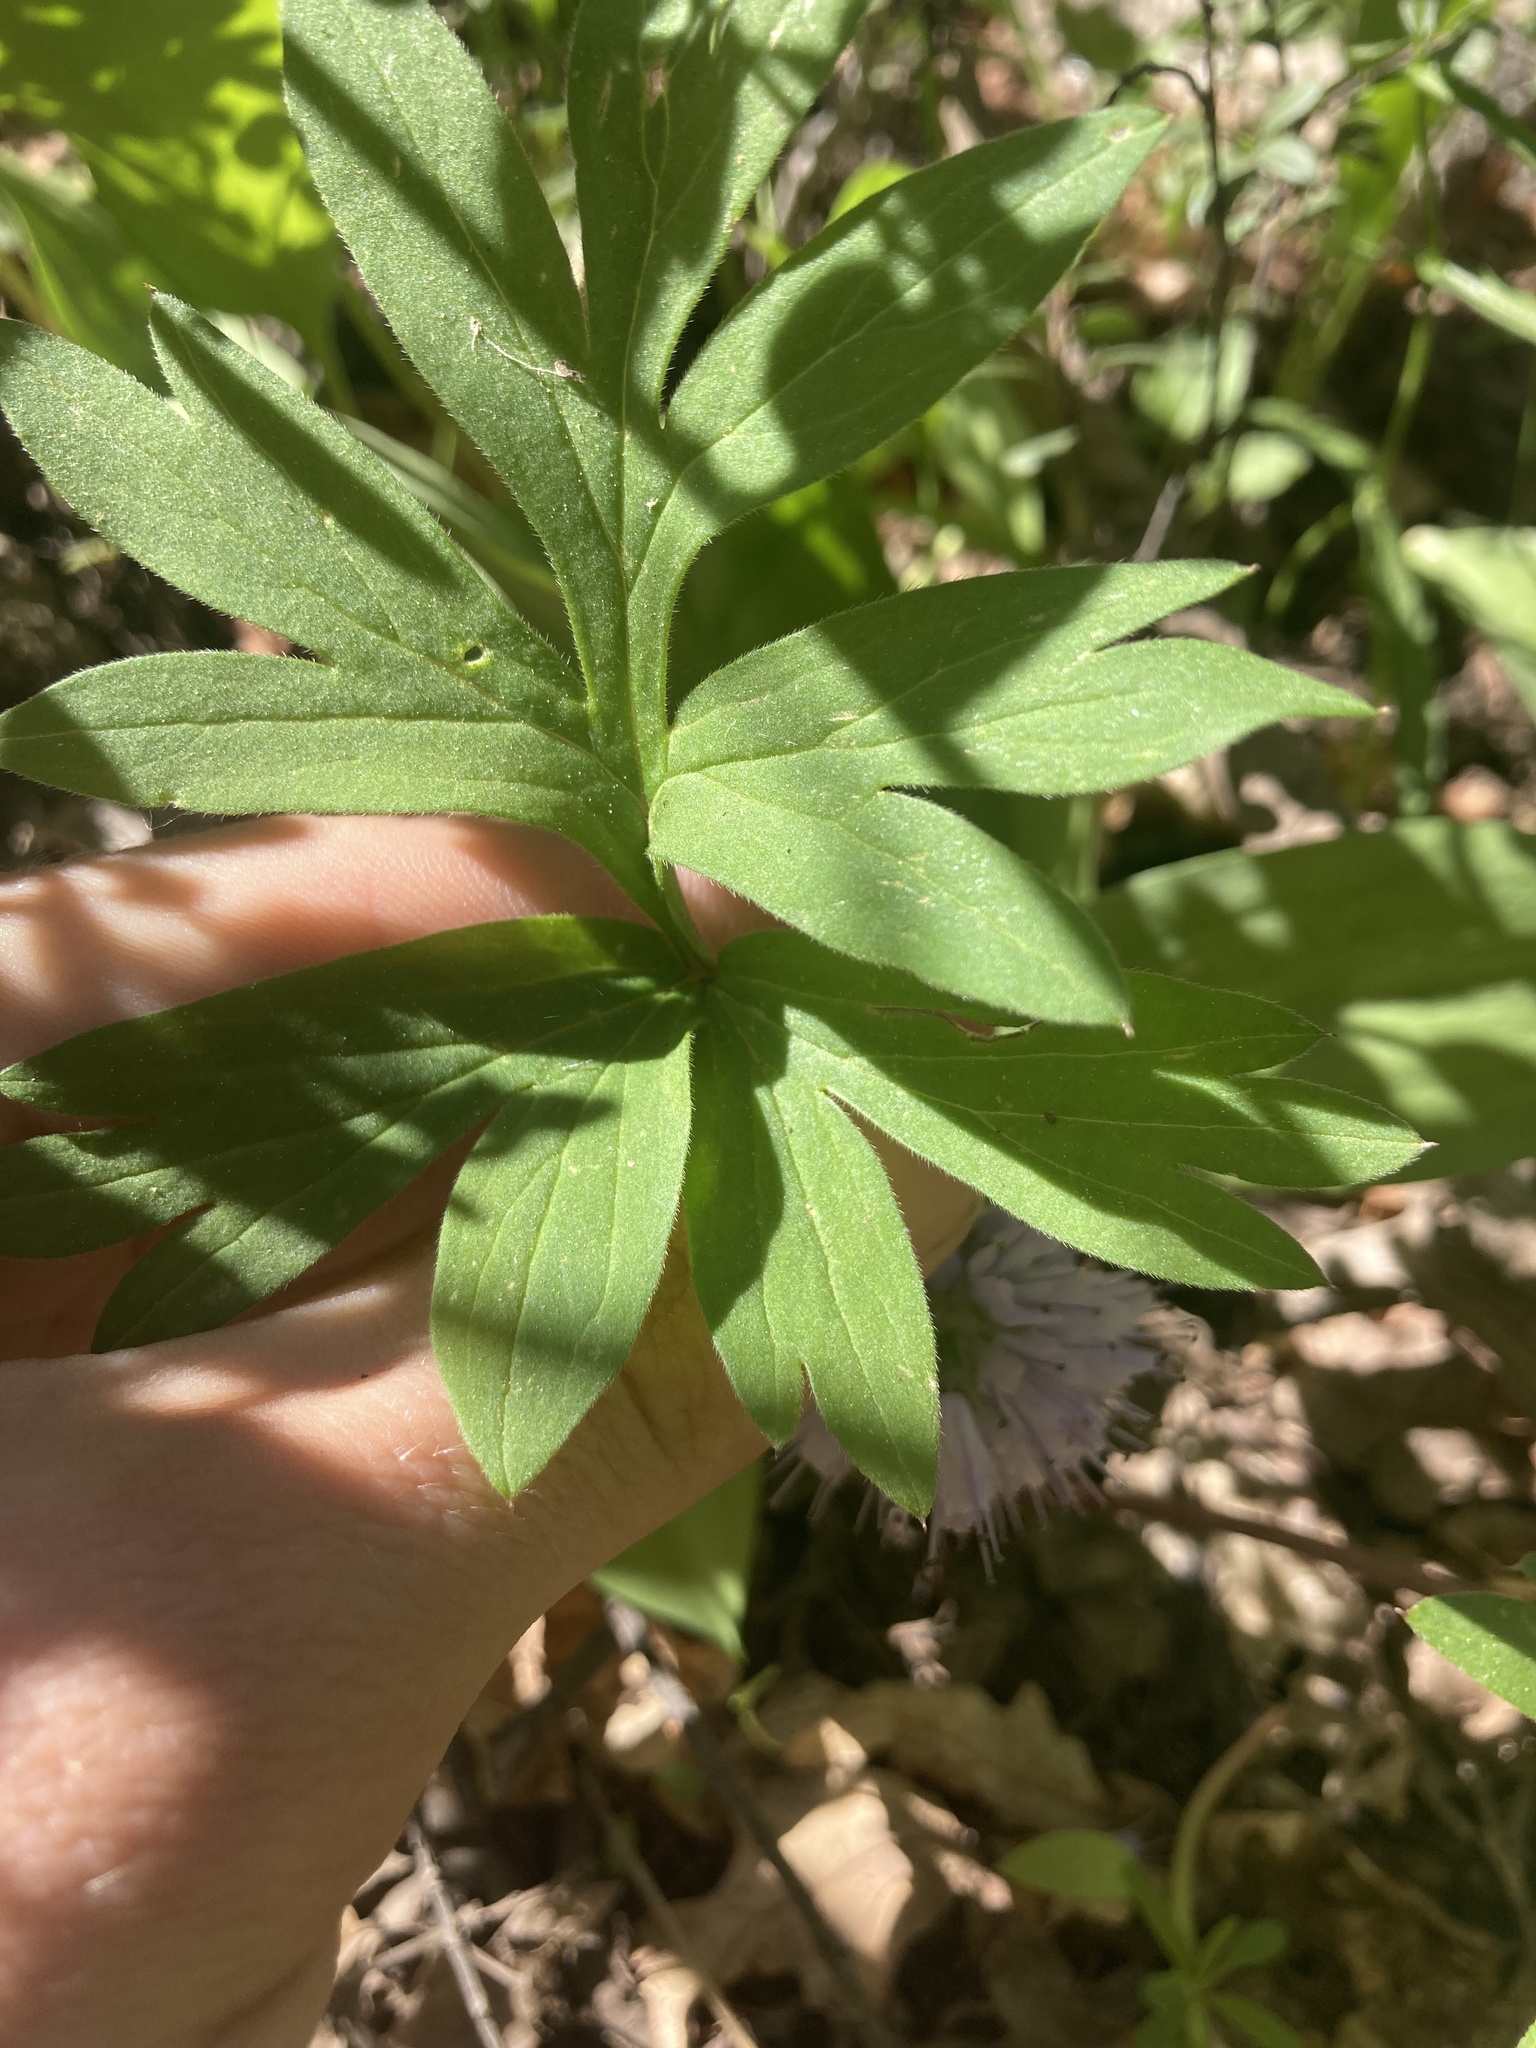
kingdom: Plantae
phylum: Tracheophyta
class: Magnoliopsida
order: Boraginales
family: Hydrophyllaceae
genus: Hydrophyllum
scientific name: Hydrophyllum capitatum
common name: Woollen-breeches
